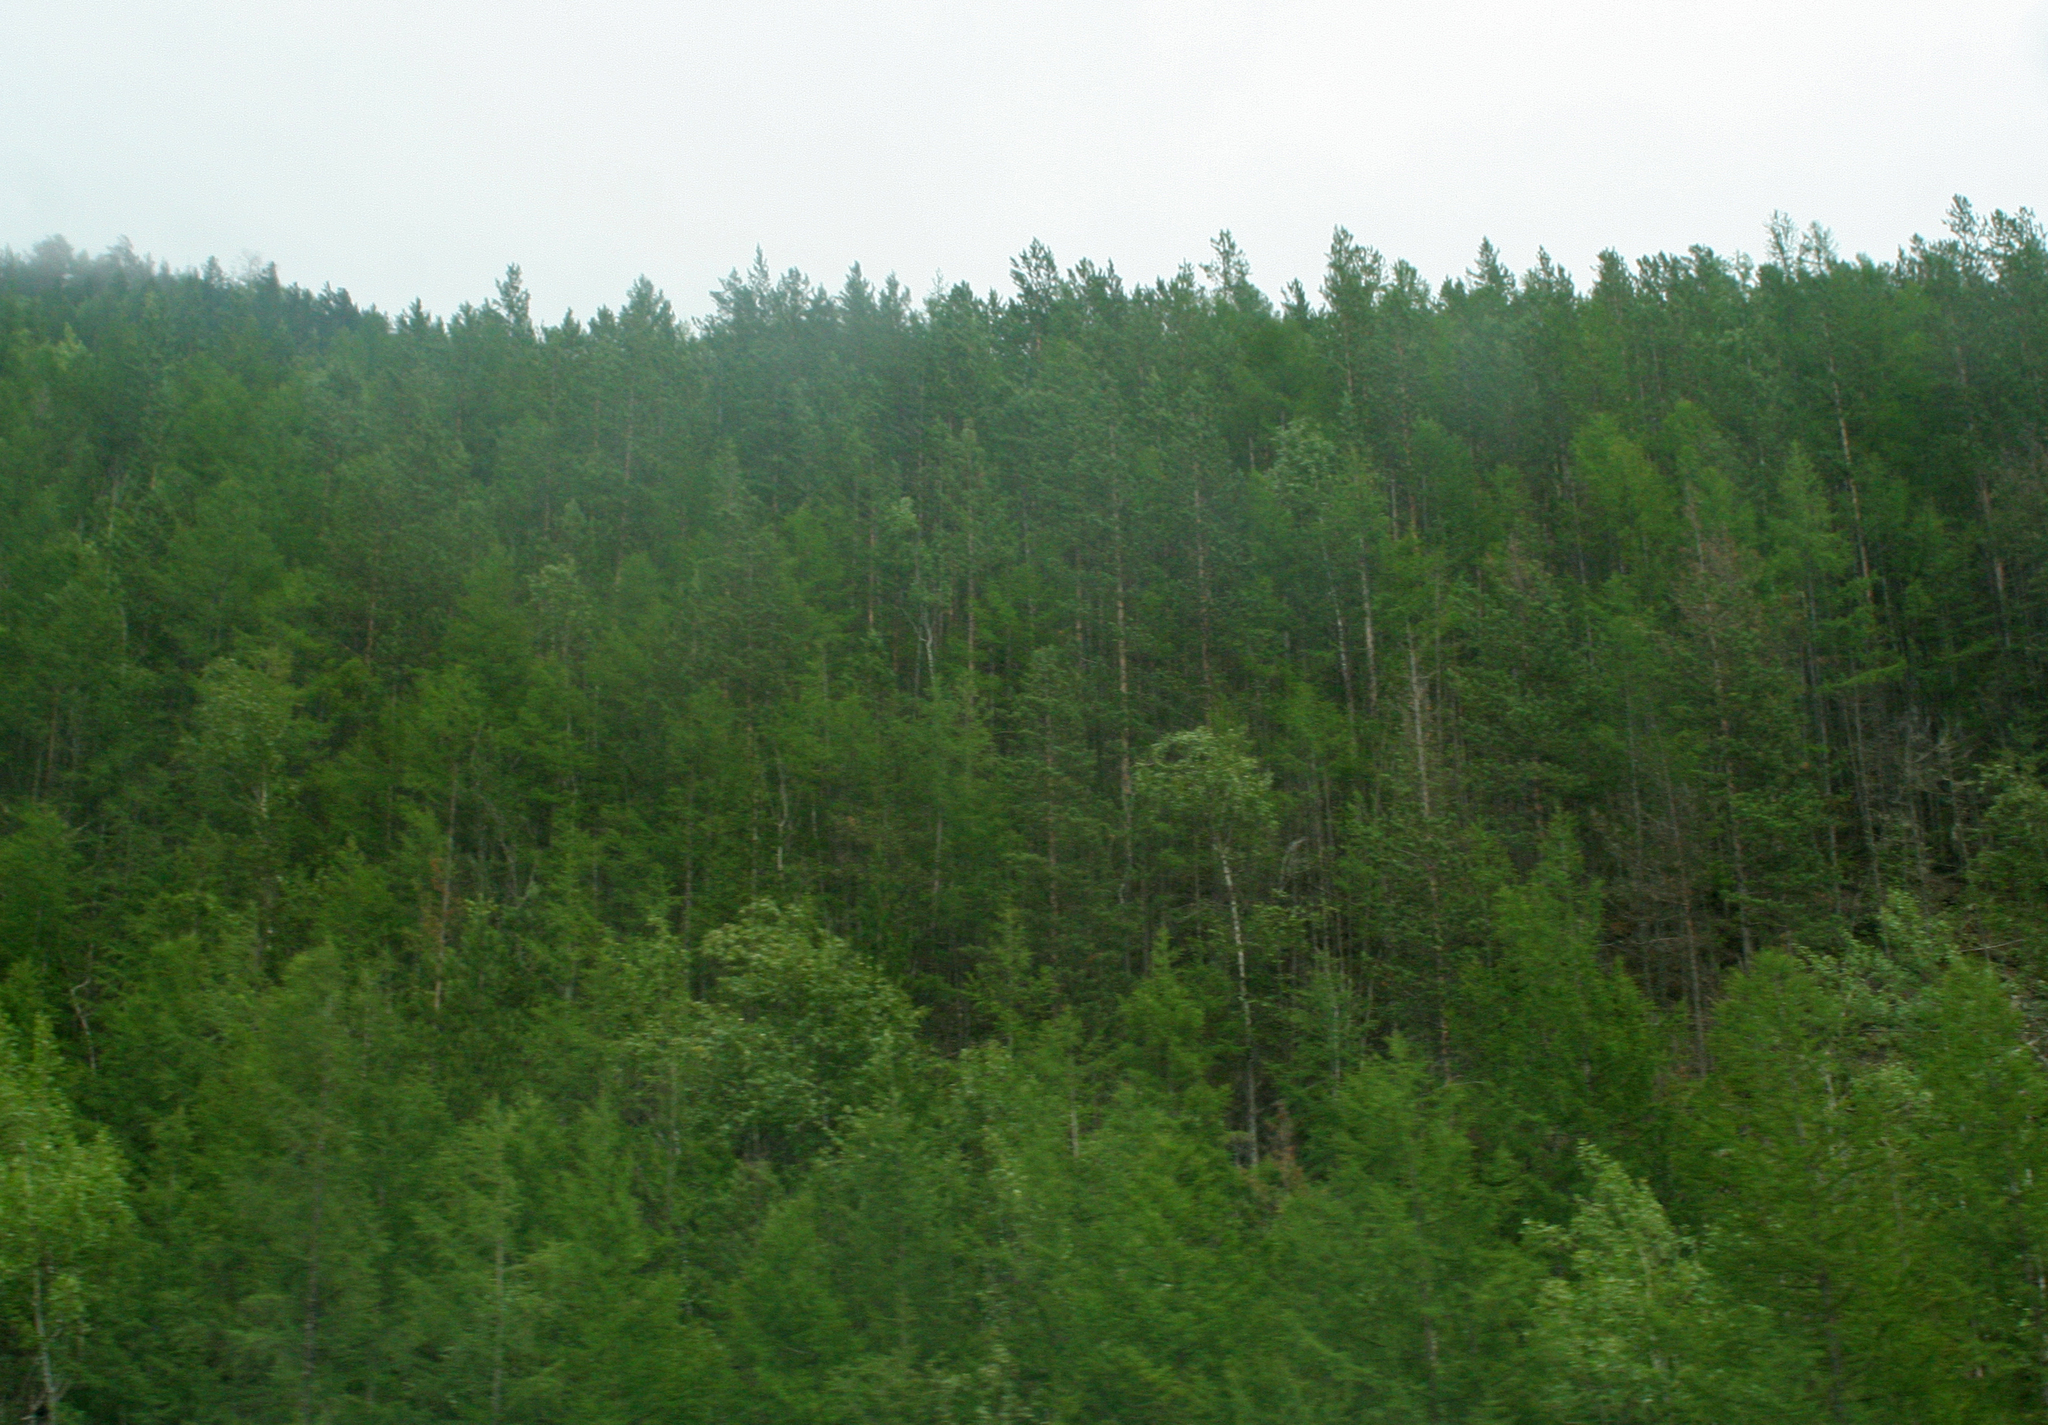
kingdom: Plantae
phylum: Tracheophyta
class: Pinopsida
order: Pinales
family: Pinaceae
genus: Pinus
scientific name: Pinus sylvestris
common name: Scots pine
